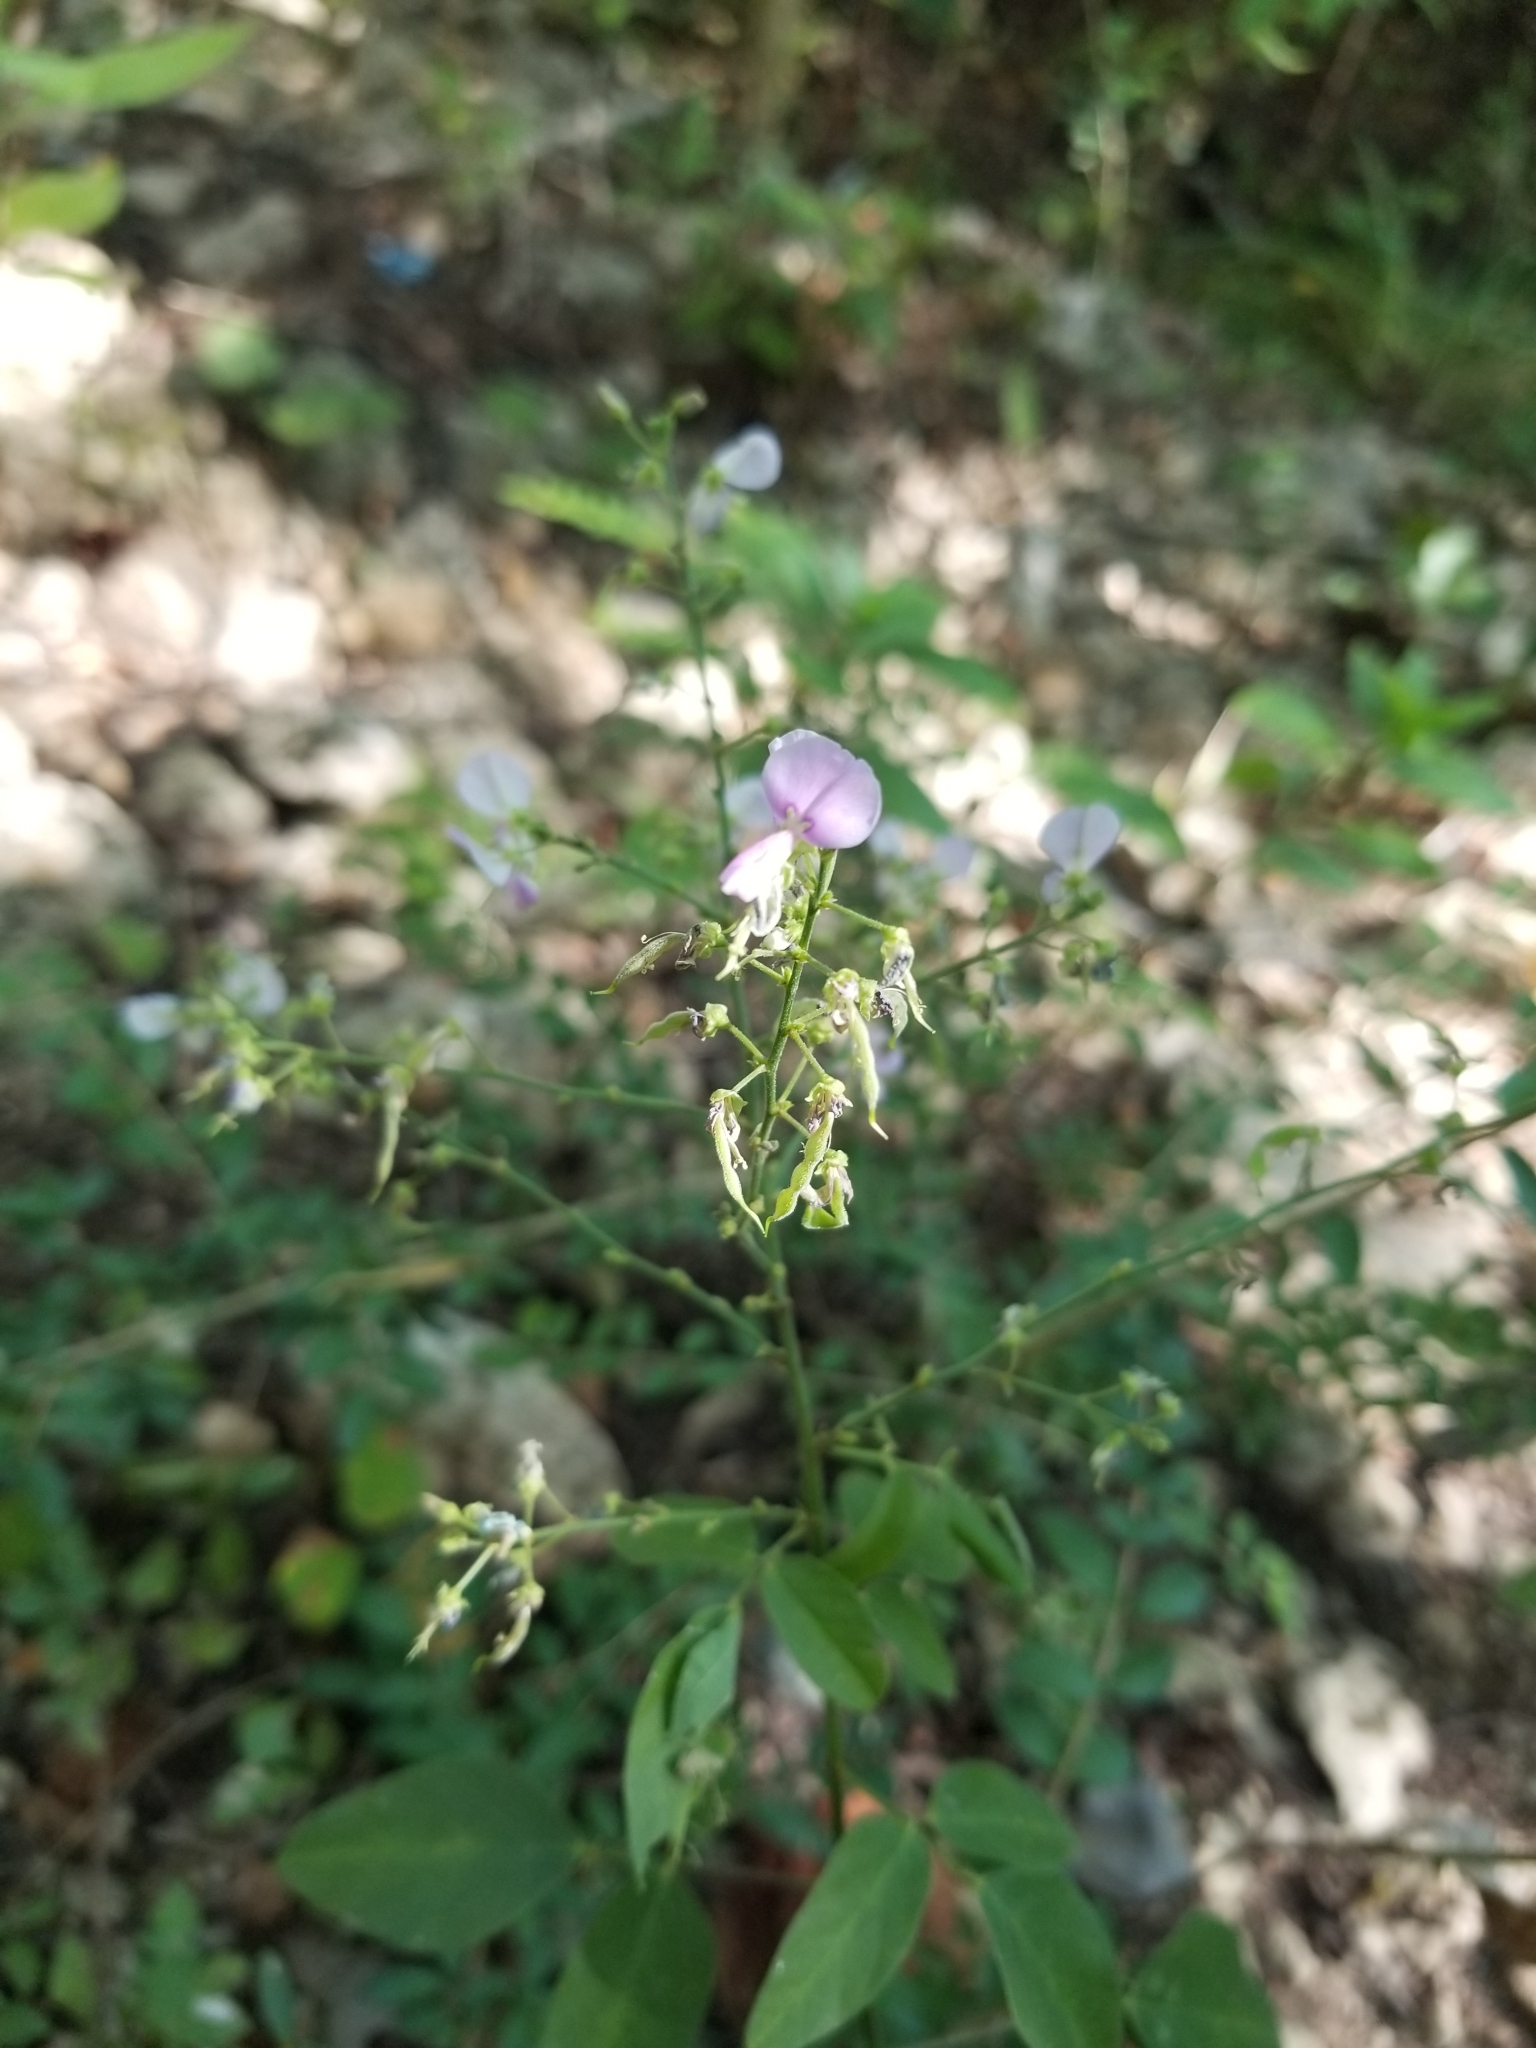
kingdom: Plantae
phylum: Tracheophyta
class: Magnoliopsida
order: Fabales
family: Fabaceae
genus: Desmodium
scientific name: Desmodium paniculatum
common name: Panicled tick-clover
